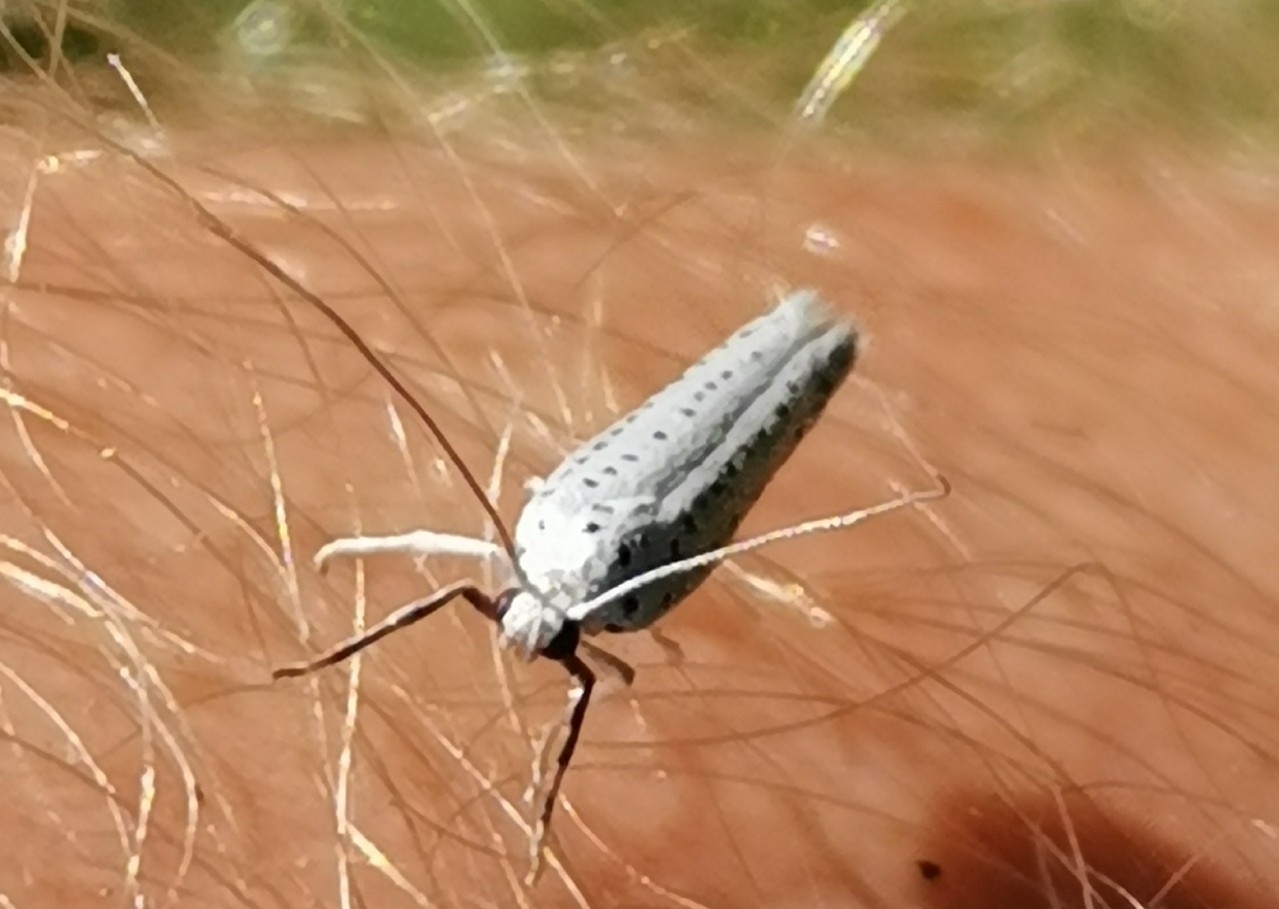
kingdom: Animalia
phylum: Arthropoda
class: Insecta
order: Lepidoptera
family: Yponomeutidae
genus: Yponomeuta
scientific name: Yponomeuta evonymella
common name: Bird-cherry ermine
